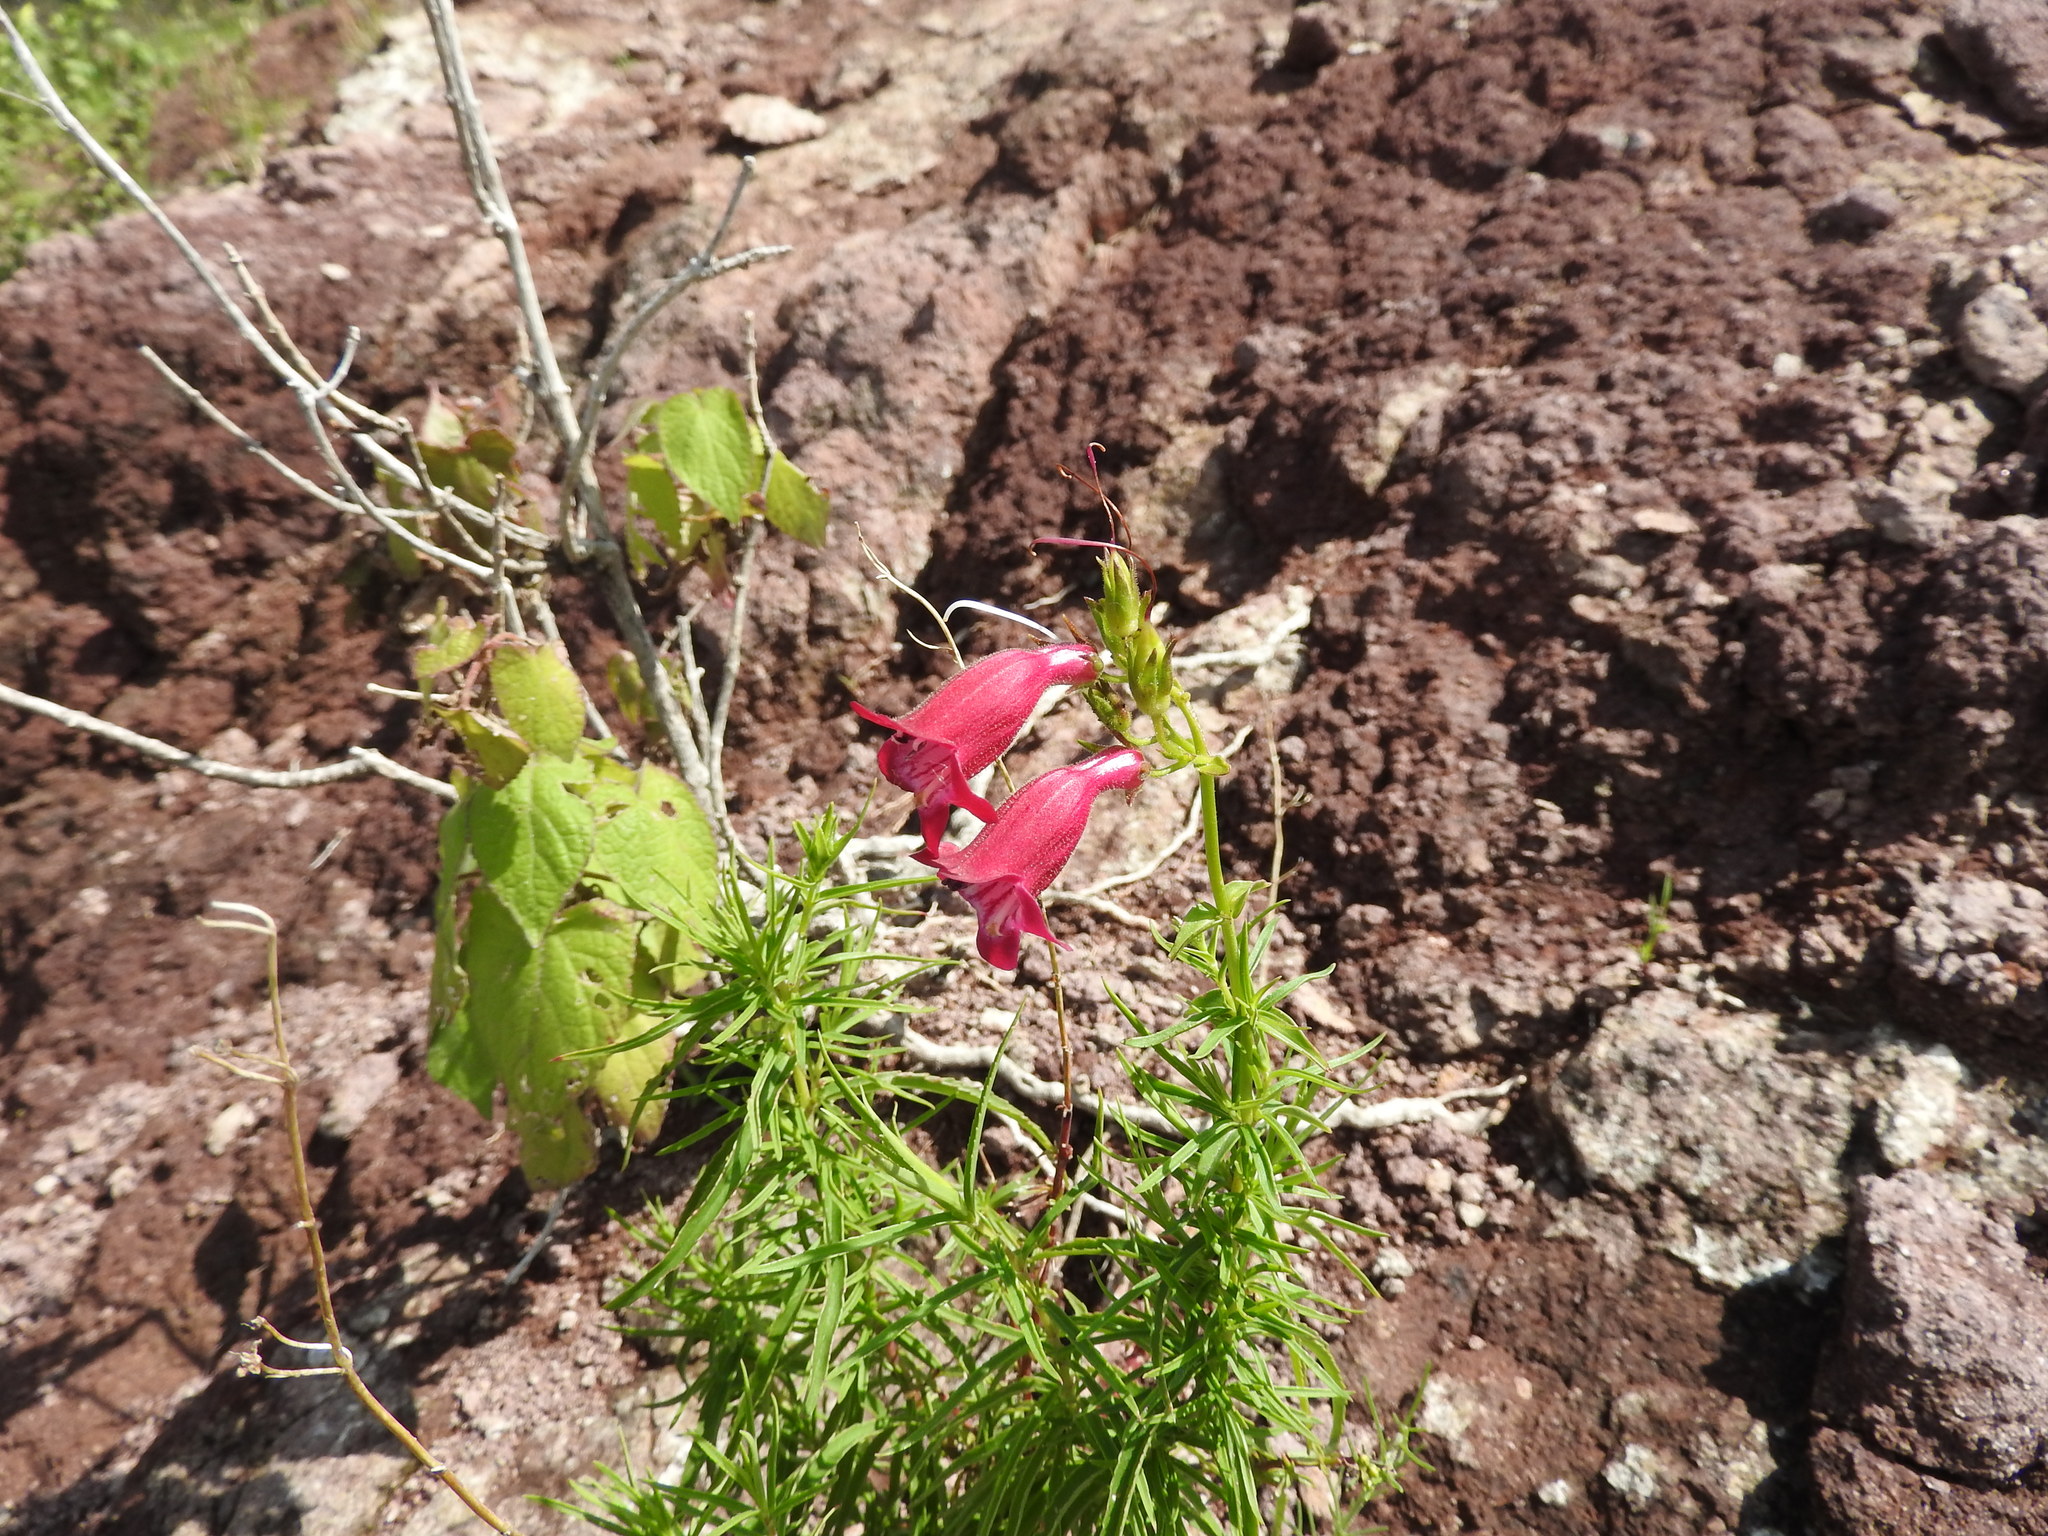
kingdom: Plantae
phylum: Tracheophyta
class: Magnoliopsida
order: Lamiales
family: Plantaginaceae
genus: Penstemon
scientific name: Penstemon roseus
